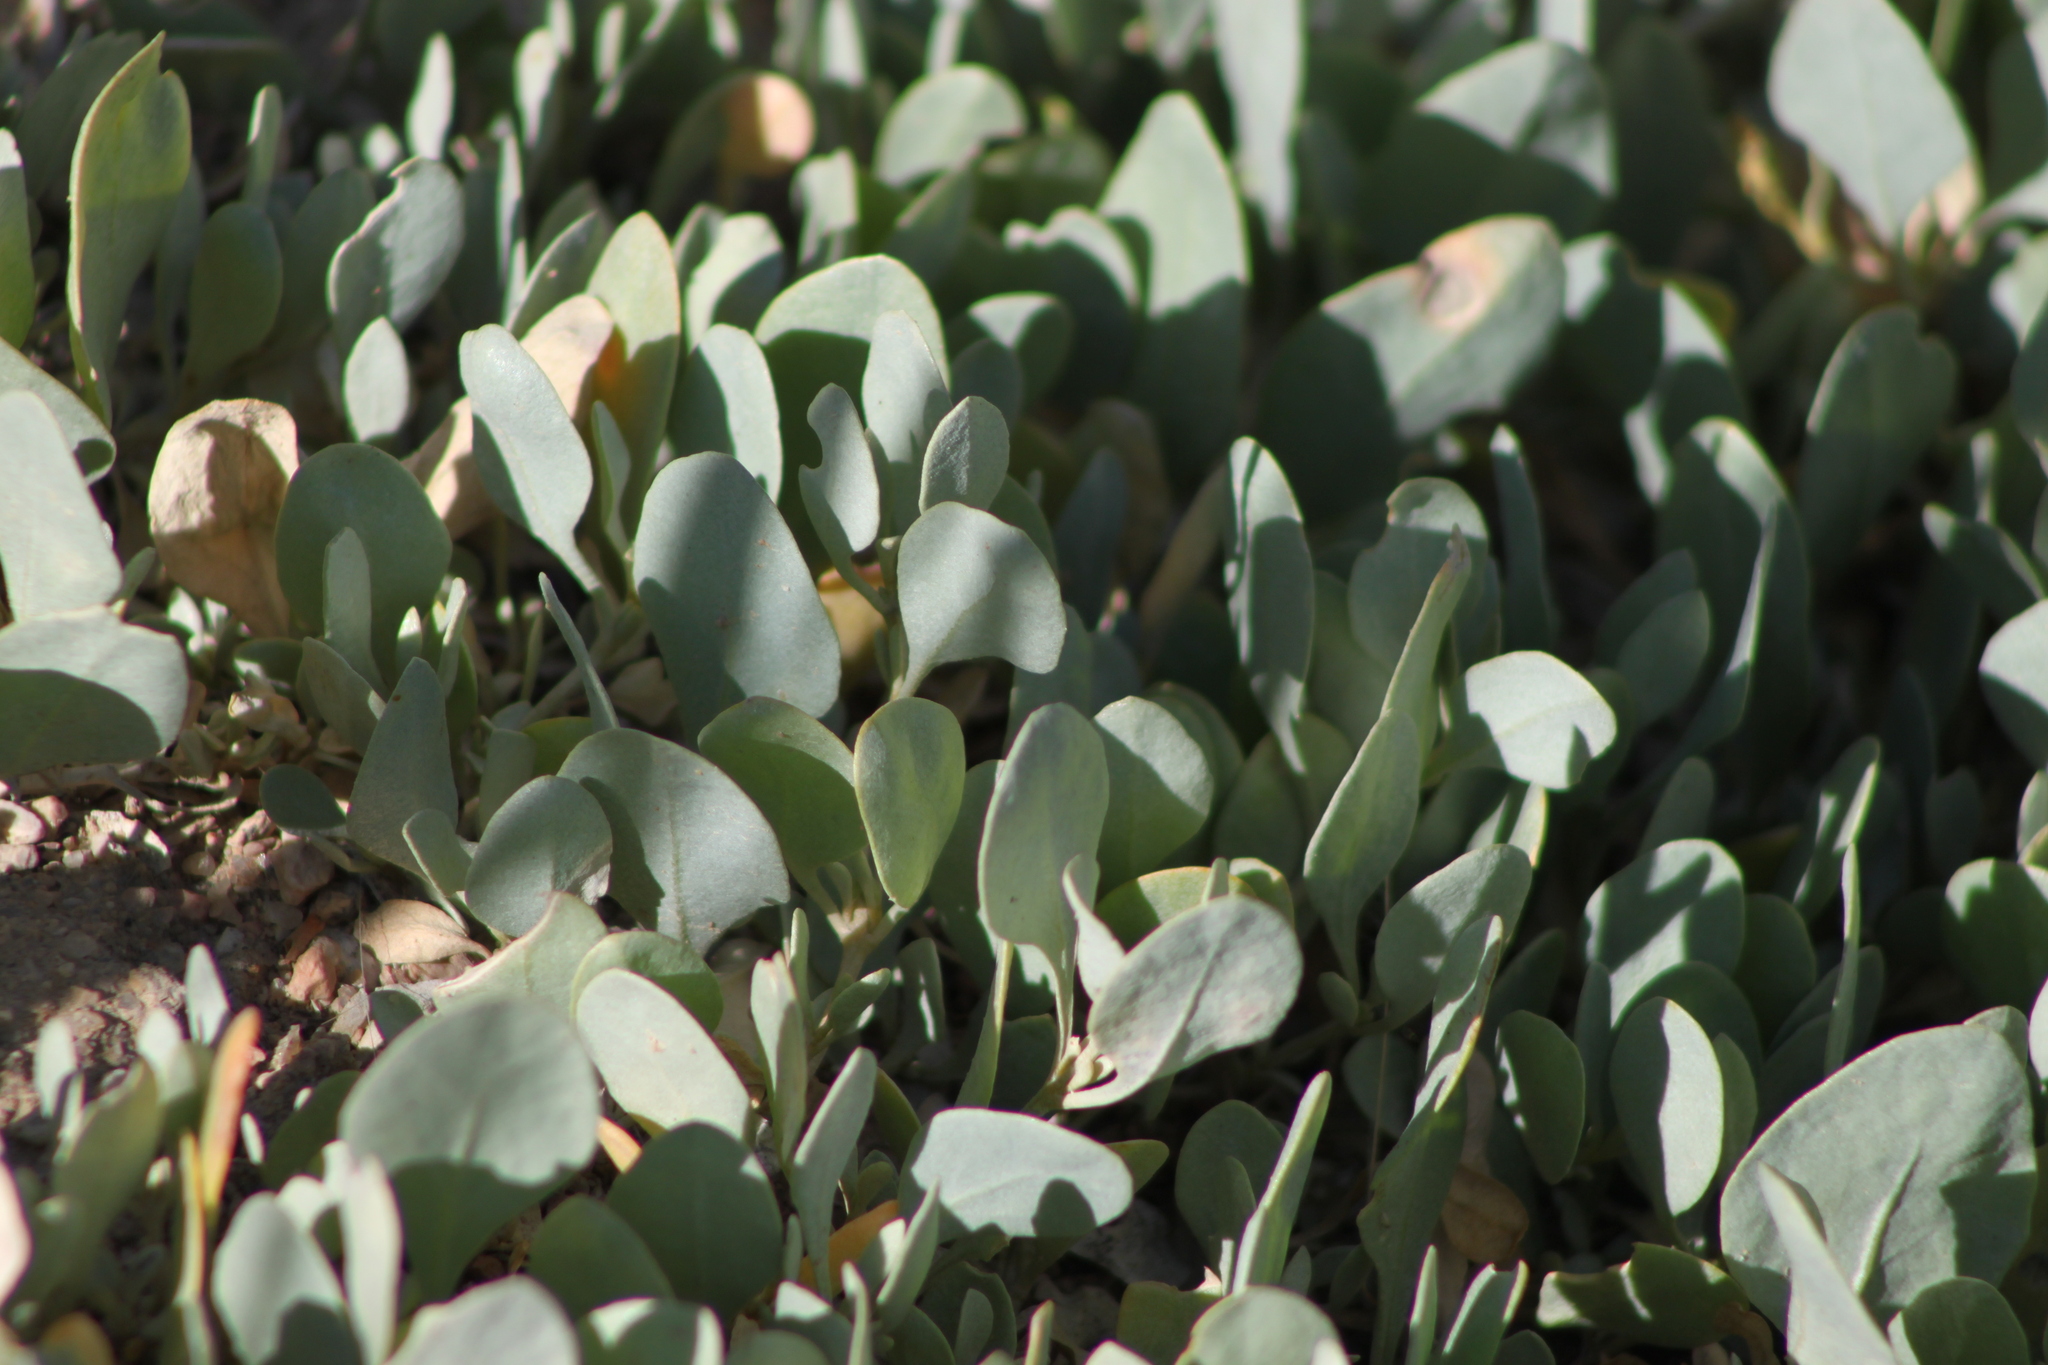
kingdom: Plantae
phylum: Tracheophyta
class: Magnoliopsida
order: Caryophyllales
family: Amaranthaceae
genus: Halimione
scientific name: Halimione verrucifera
